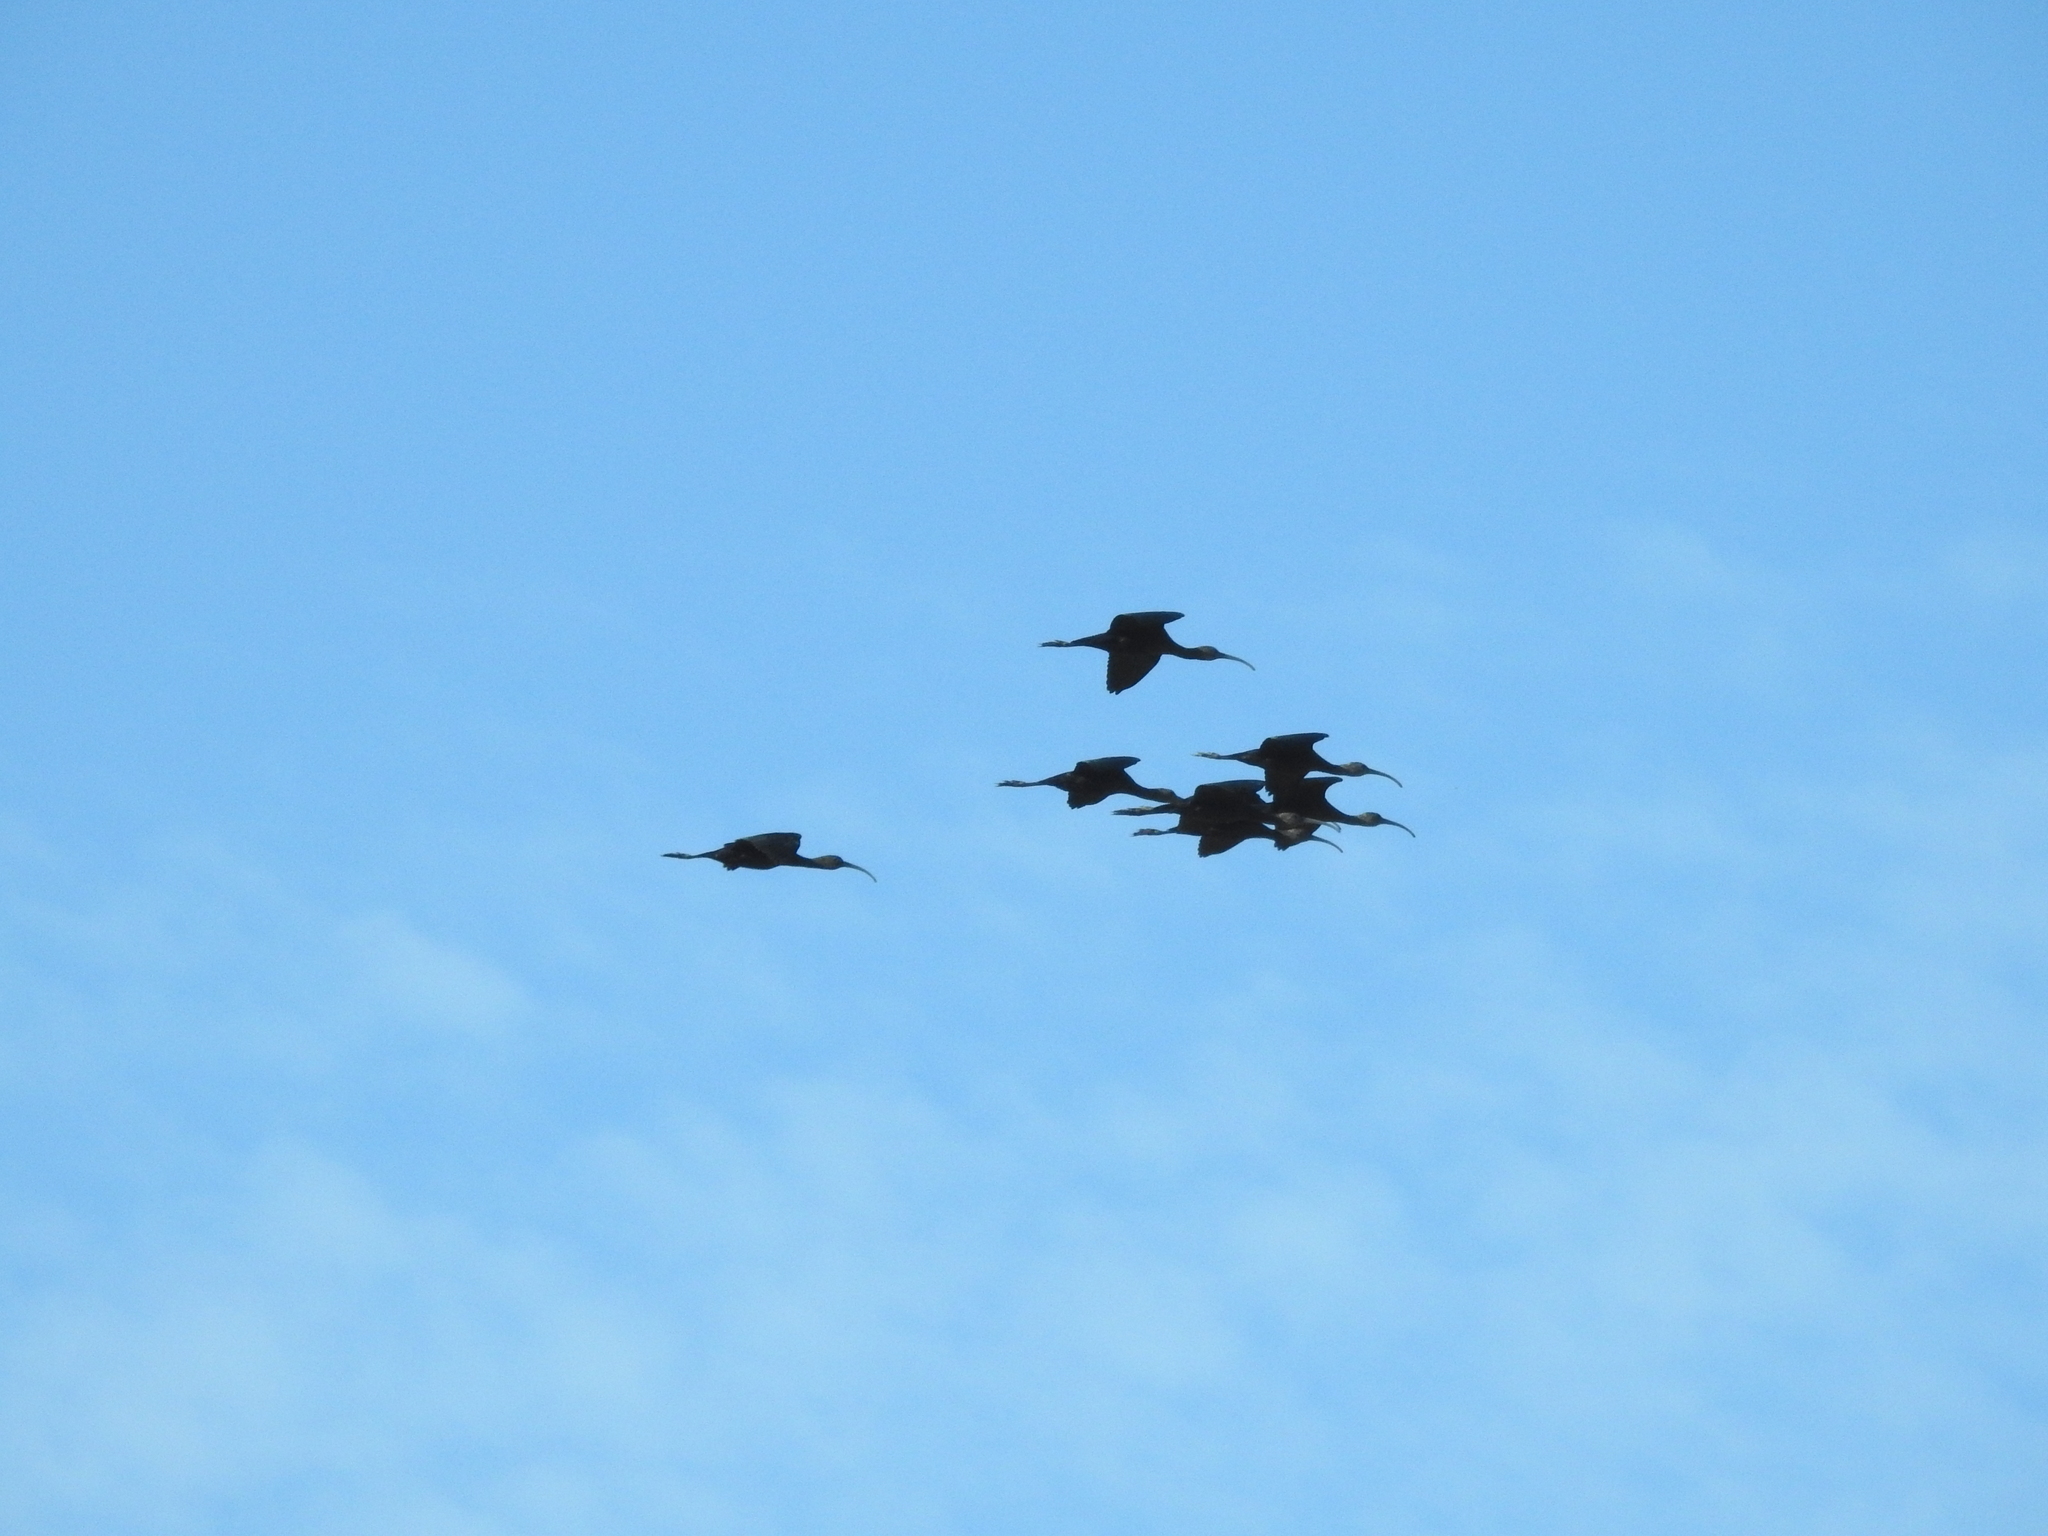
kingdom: Animalia
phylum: Chordata
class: Aves
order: Pelecaniformes
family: Threskiornithidae
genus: Plegadis
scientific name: Plegadis chihi
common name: White-faced ibis
